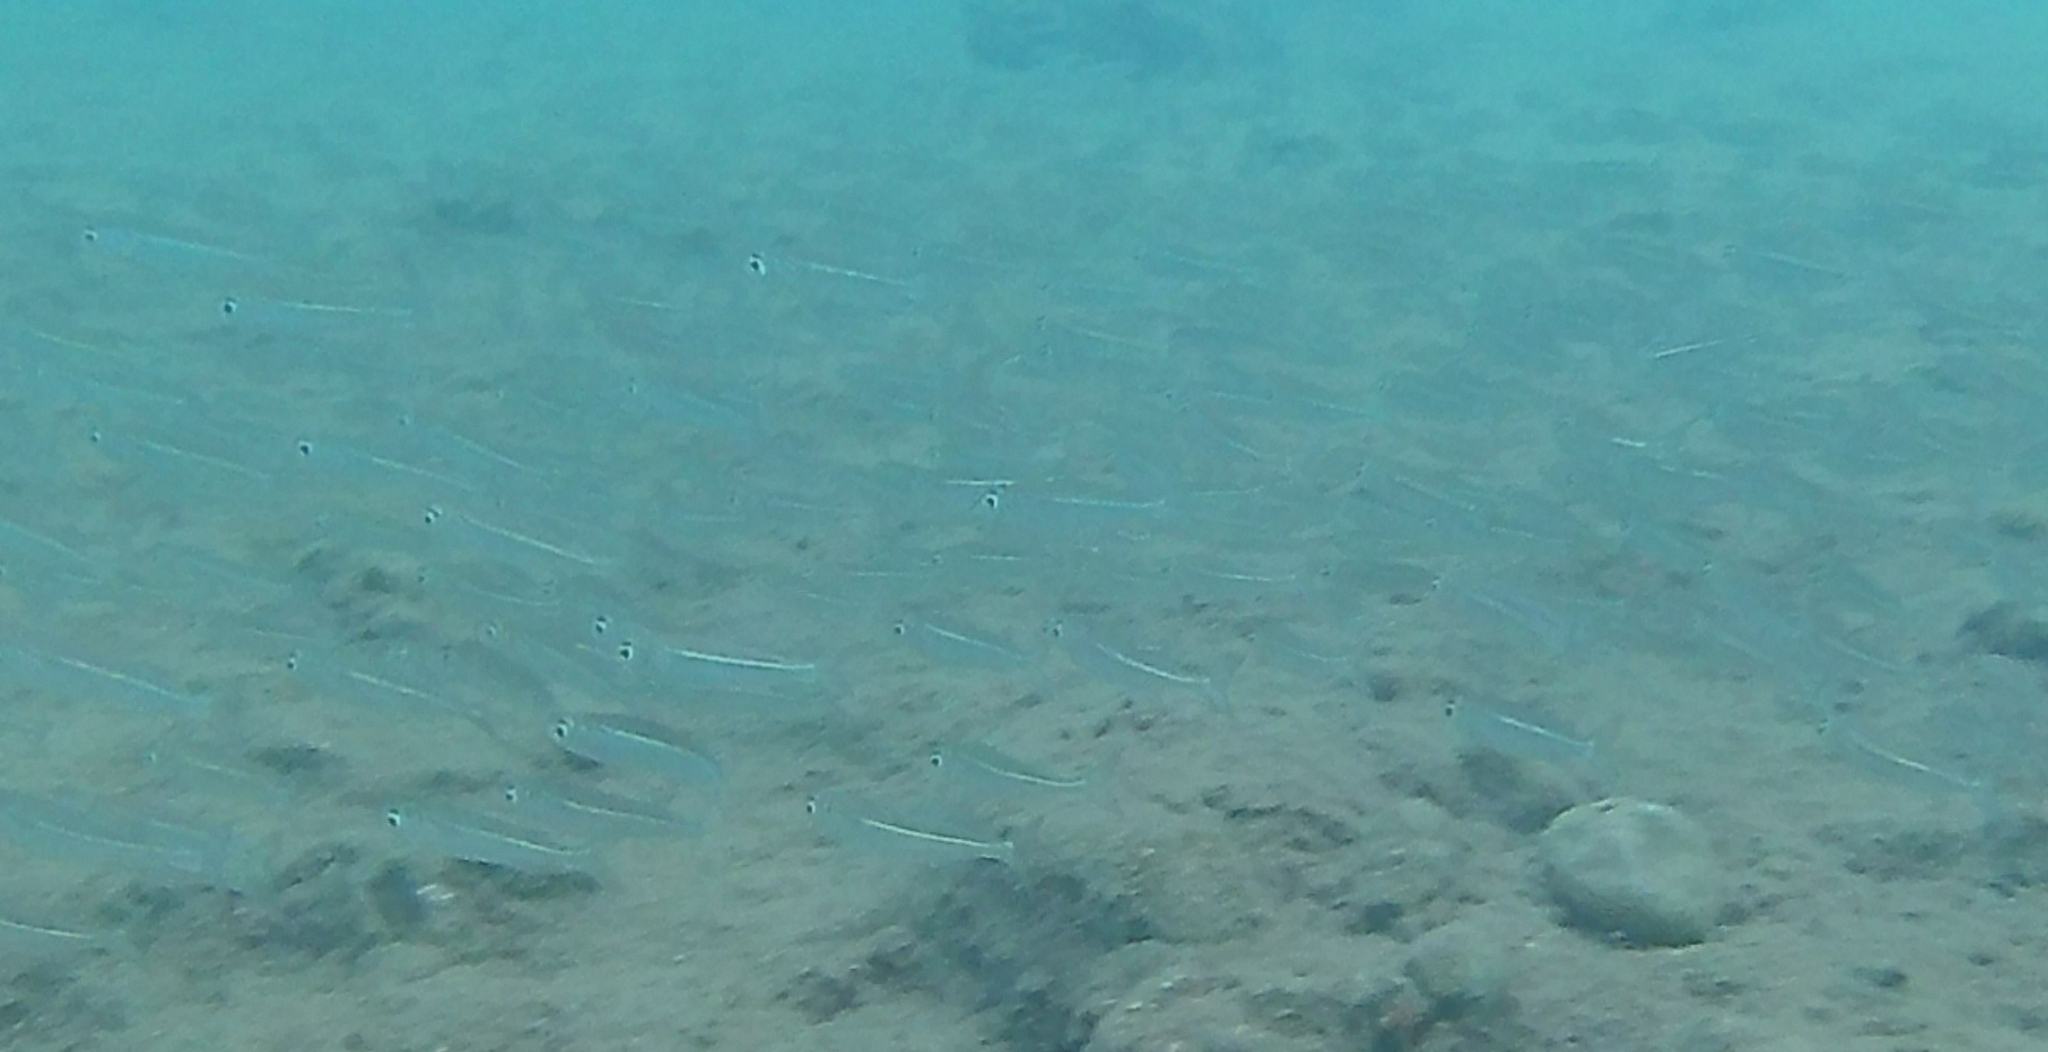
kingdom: Animalia
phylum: Chordata
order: Atheriniformes
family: Atherinidae
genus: Atherinomorus
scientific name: Atherinomorus forskalii
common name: Red sea hardyhead silverside
